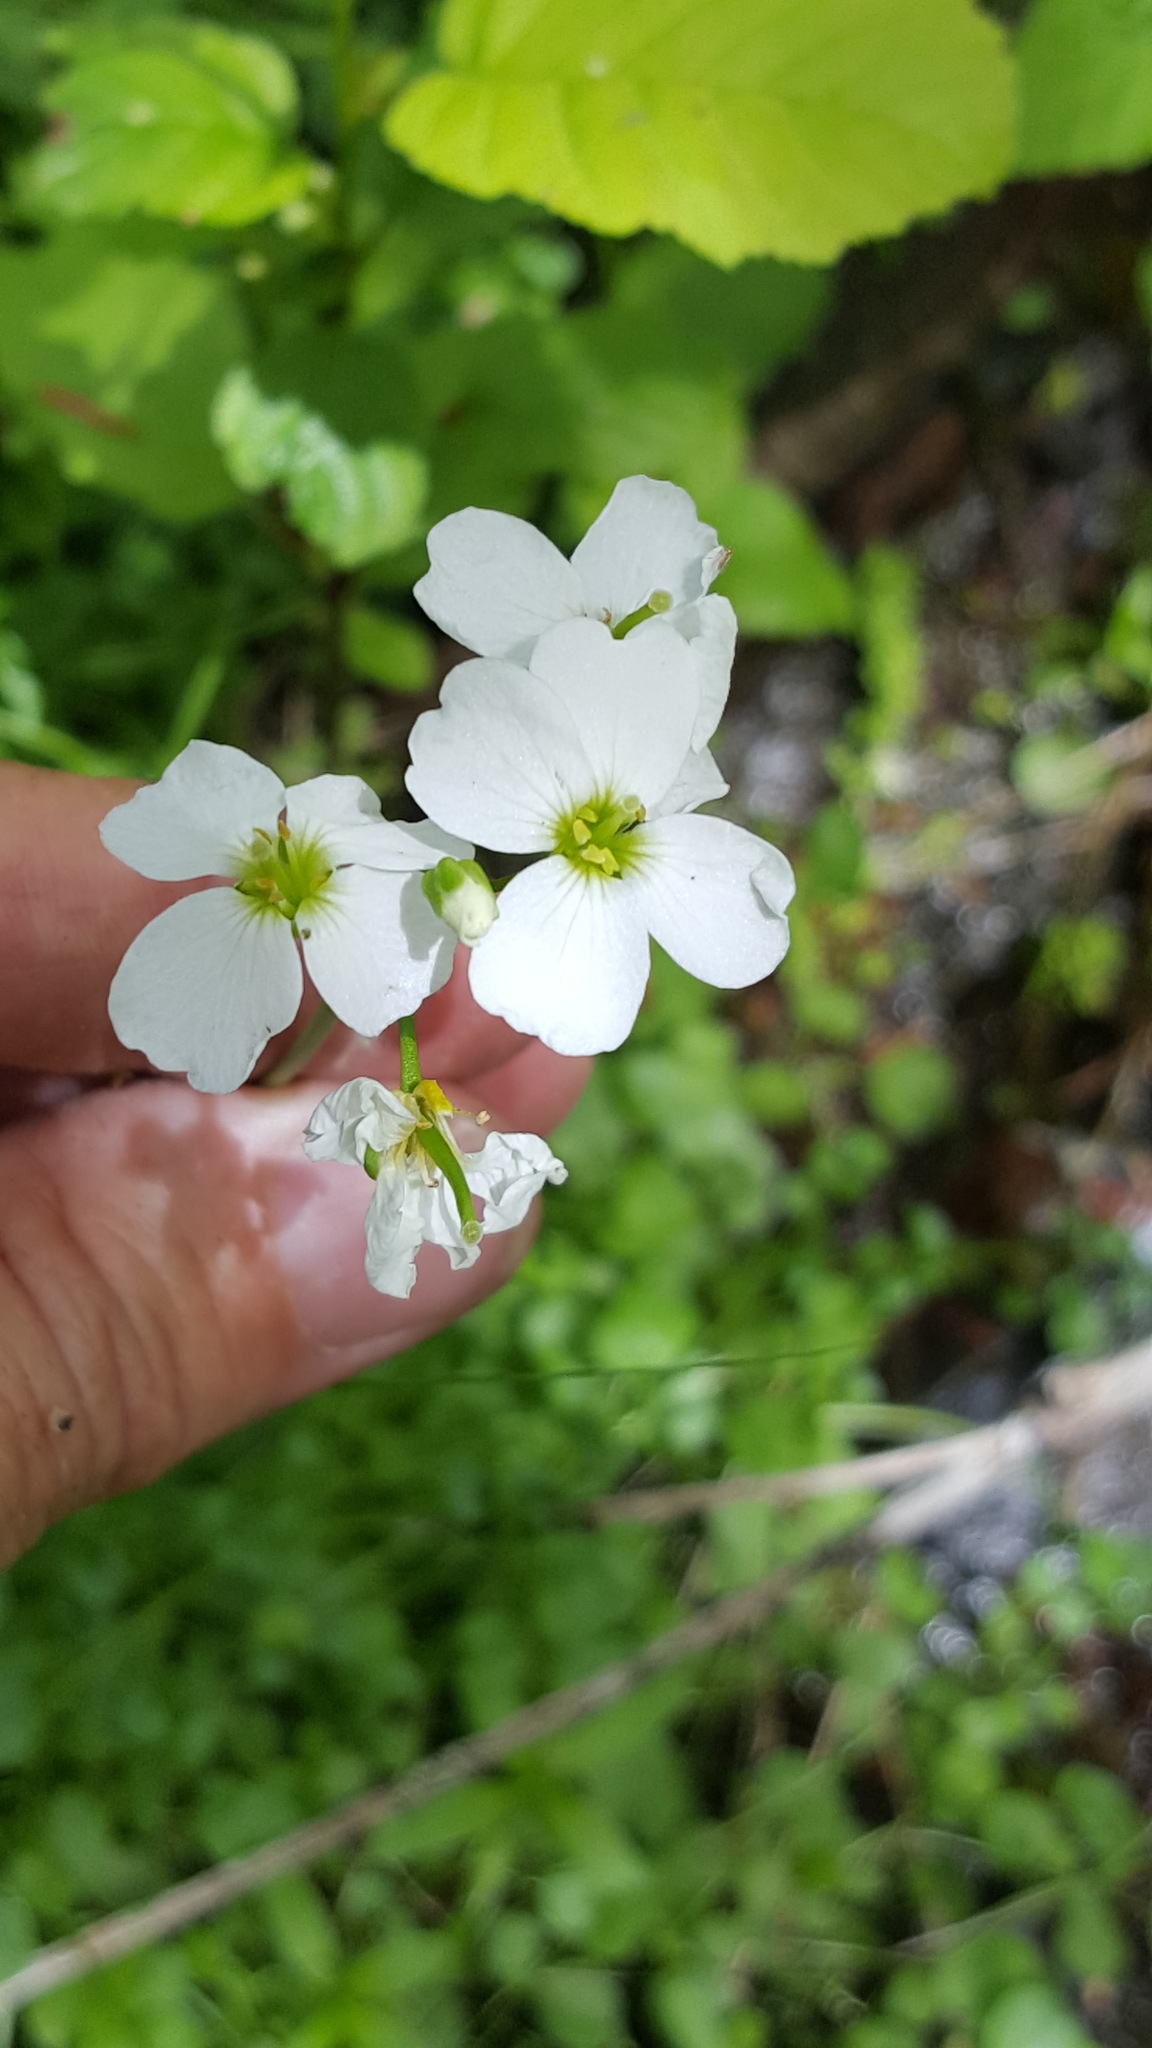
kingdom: Plantae
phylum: Tracheophyta
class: Magnoliopsida
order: Brassicales
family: Brassicaceae
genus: Cardamine
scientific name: Cardamine pratensis
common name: Cuckoo flower
